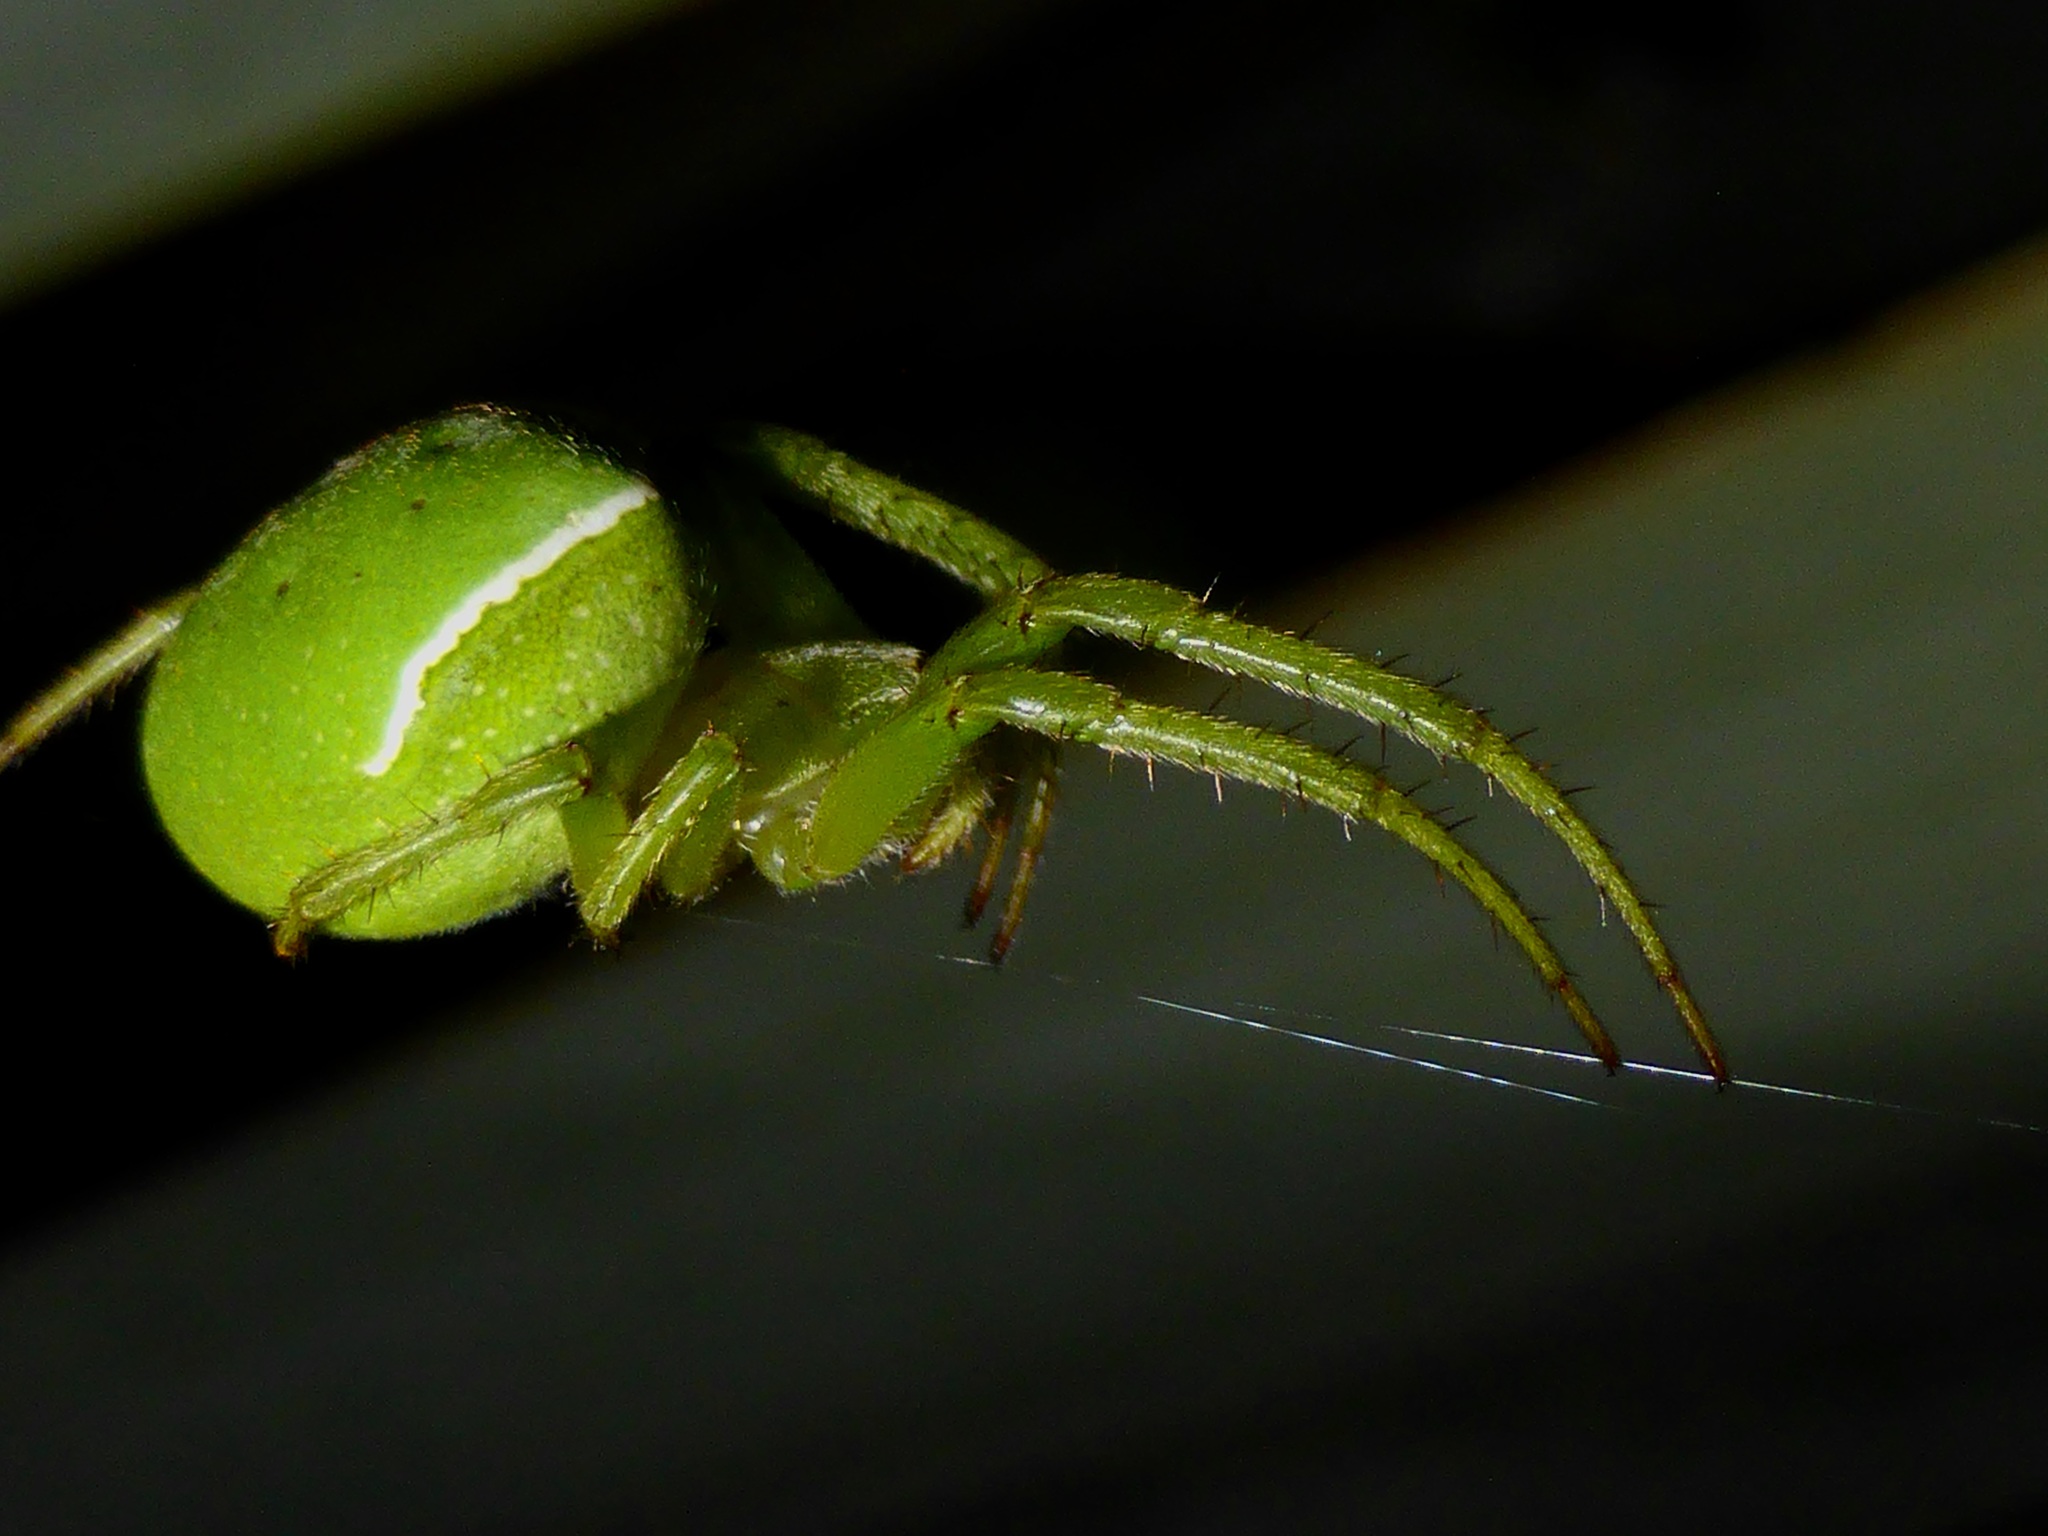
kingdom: Animalia
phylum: Arthropoda
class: Arachnida
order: Araneae
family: Araneidae
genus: Colaranea
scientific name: Colaranea viriditas
